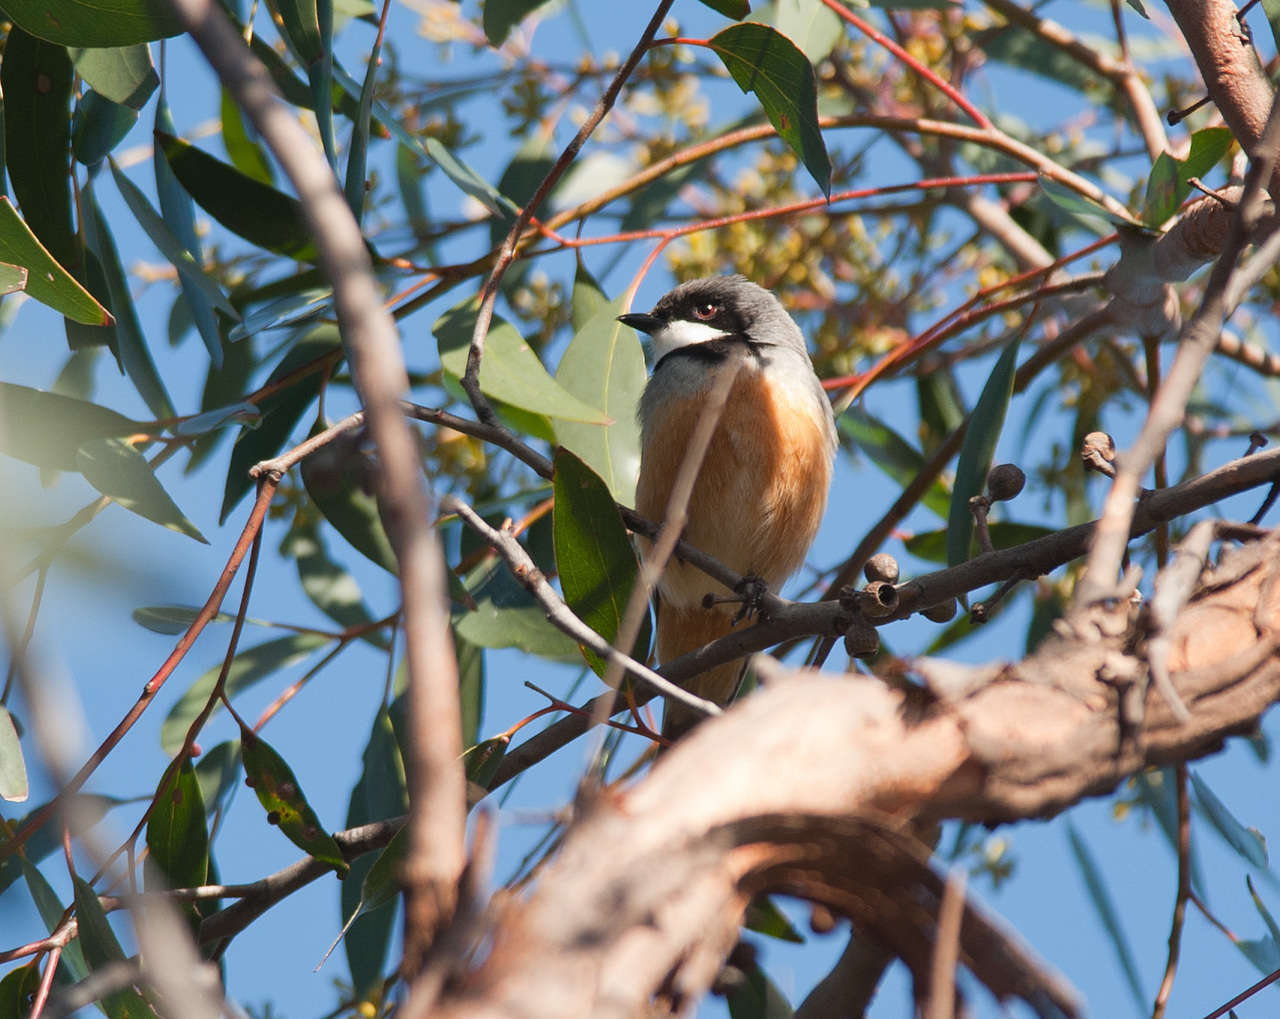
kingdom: Animalia
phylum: Chordata
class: Aves
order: Passeriformes
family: Pachycephalidae
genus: Pachycephala
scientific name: Pachycephala rufiventris
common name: Rufous whistler
